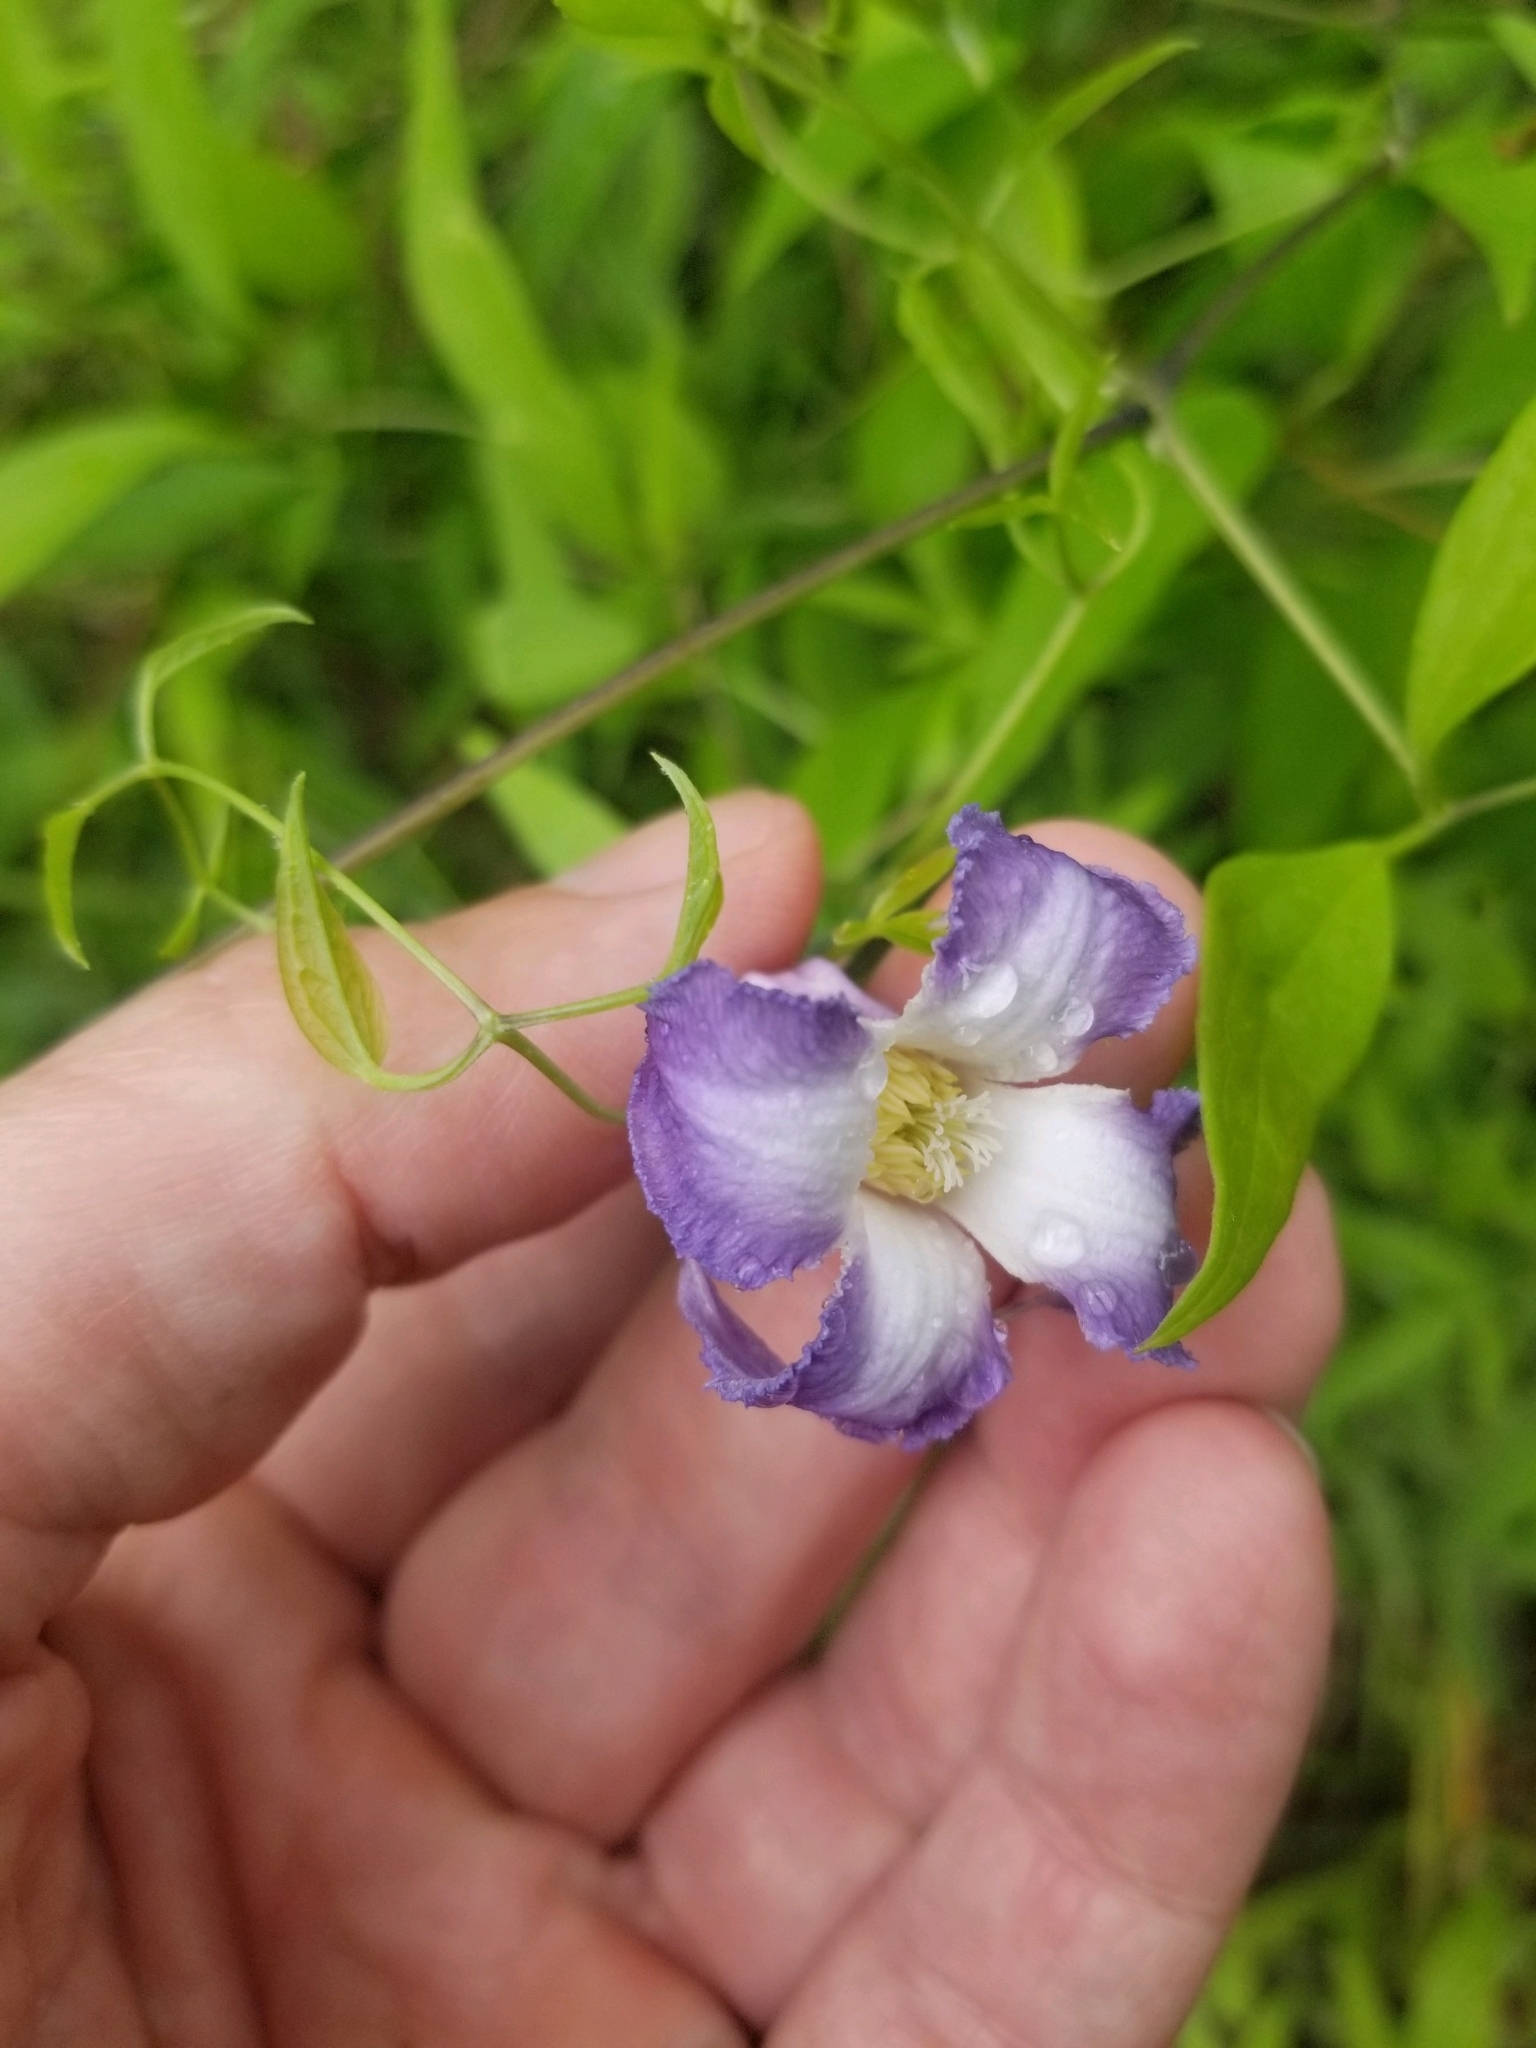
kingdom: Plantae
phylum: Tracheophyta
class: Magnoliopsida
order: Ranunculales
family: Ranunculaceae
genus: Clematis
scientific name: Clematis crispa
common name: Curly clematis
